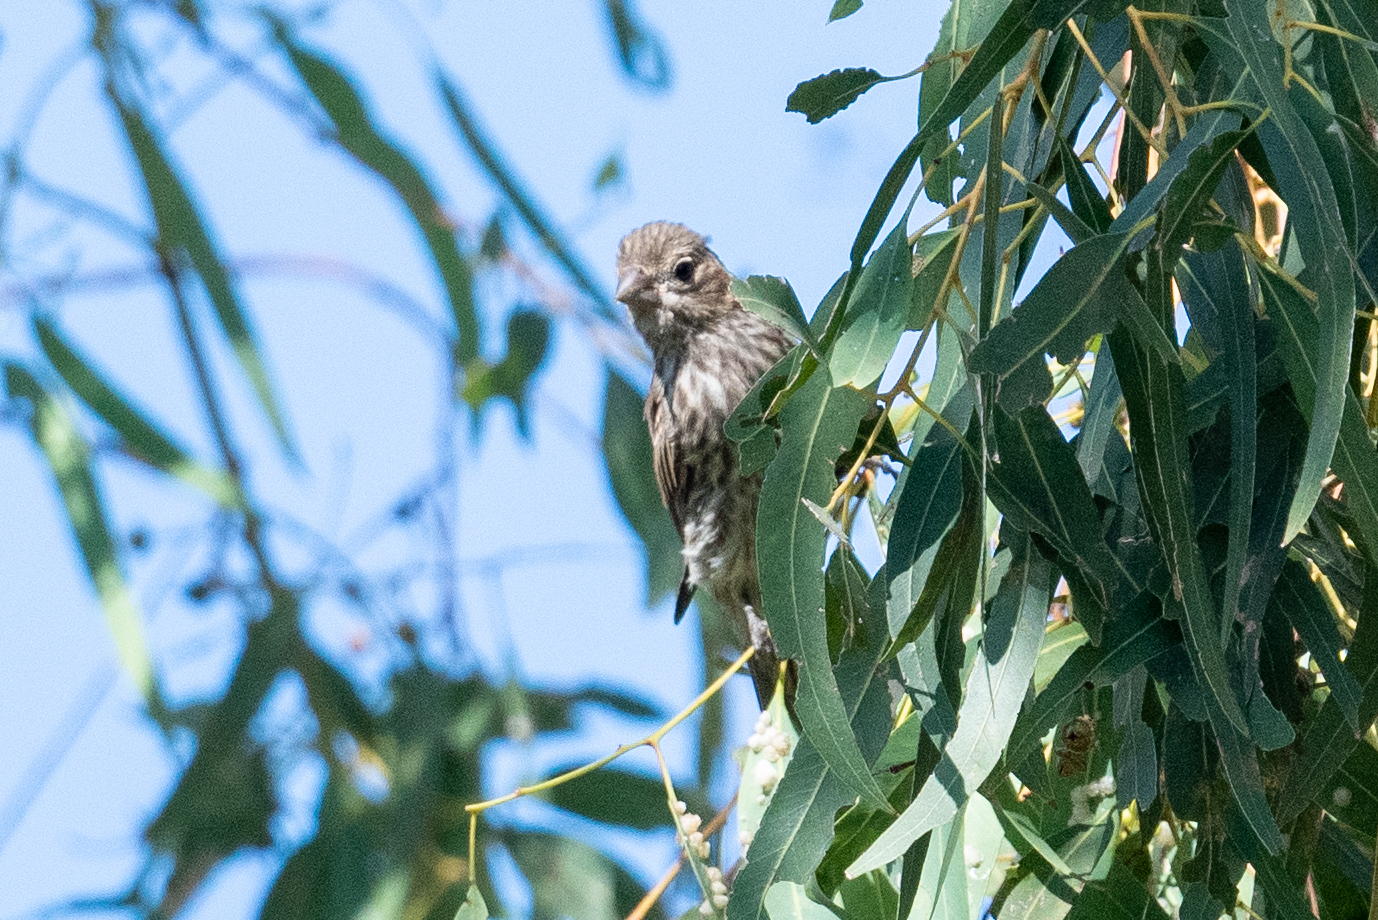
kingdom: Animalia
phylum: Chordata
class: Aves
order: Passeriformes
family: Fringillidae
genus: Haemorhous
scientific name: Haemorhous mexicanus
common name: House finch
